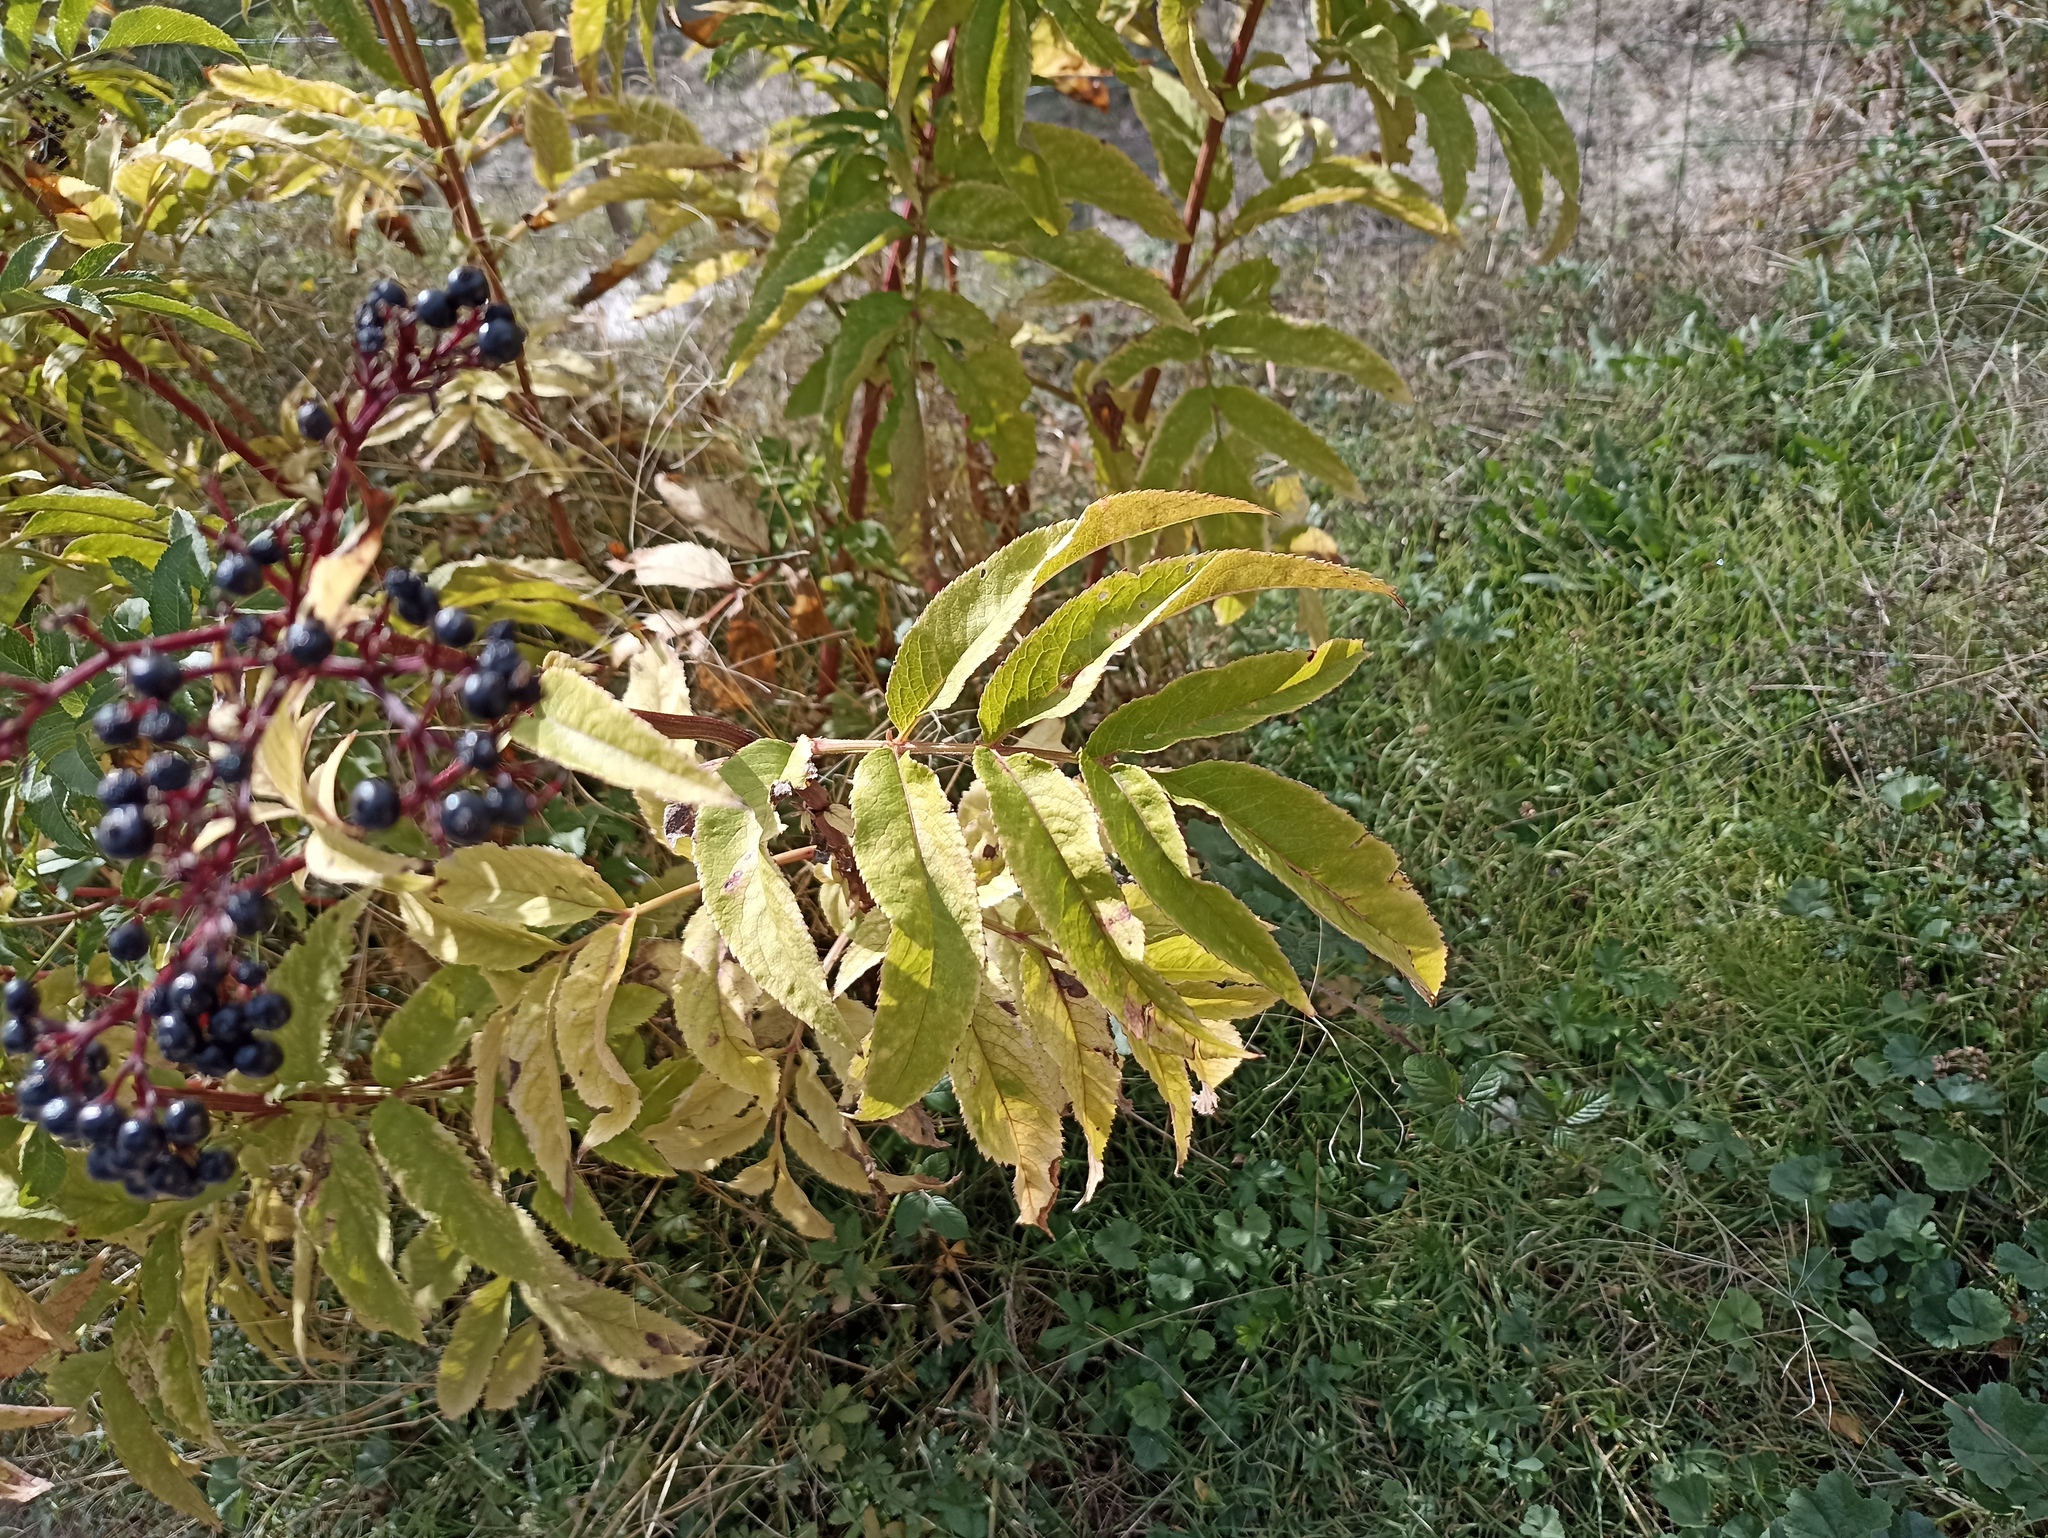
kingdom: Plantae
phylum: Tracheophyta
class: Magnoliopsida
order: Dipsacales
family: Viburnaceae
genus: Sambucus
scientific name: Sambucus ebulus
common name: Dwarf elder
